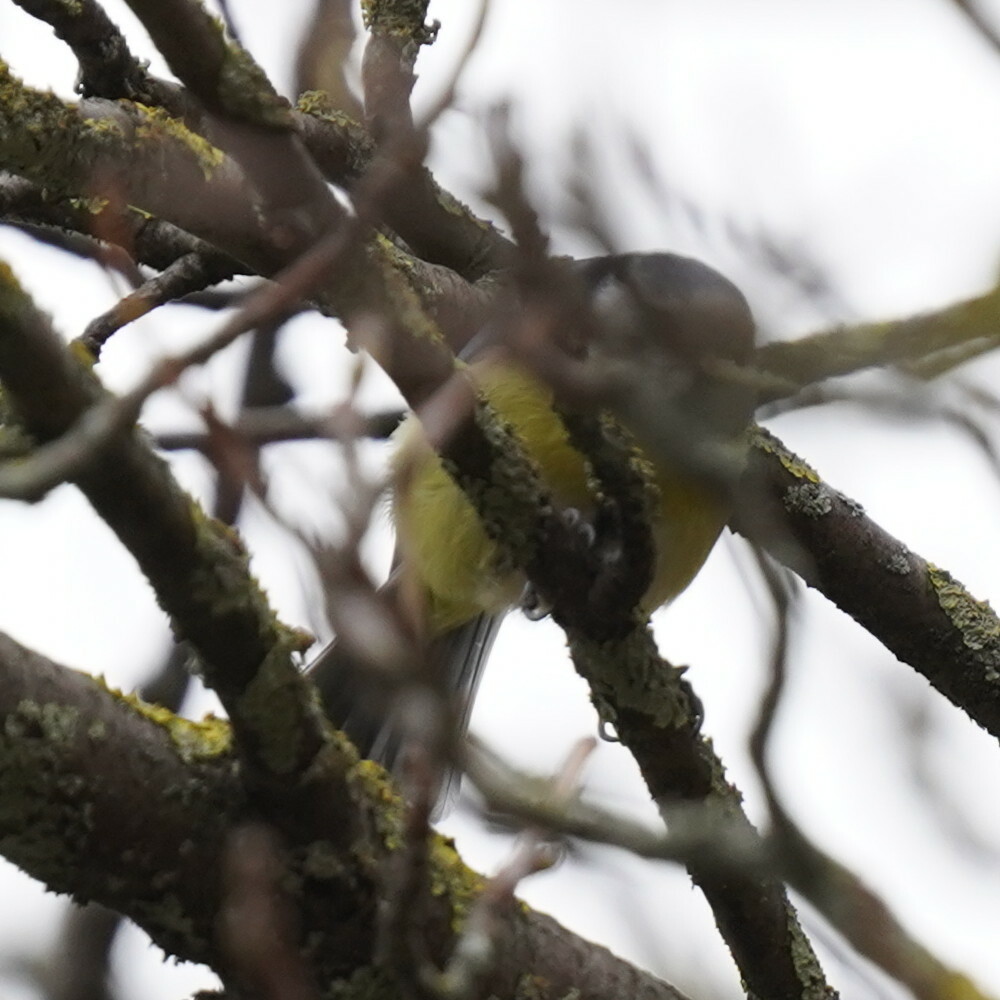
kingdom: Animalia
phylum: Chordata
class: Aves
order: Passeriformes
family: Paridae
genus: Cyanistes
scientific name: Cyanistes caeruleus
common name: Eurasian blue tit
